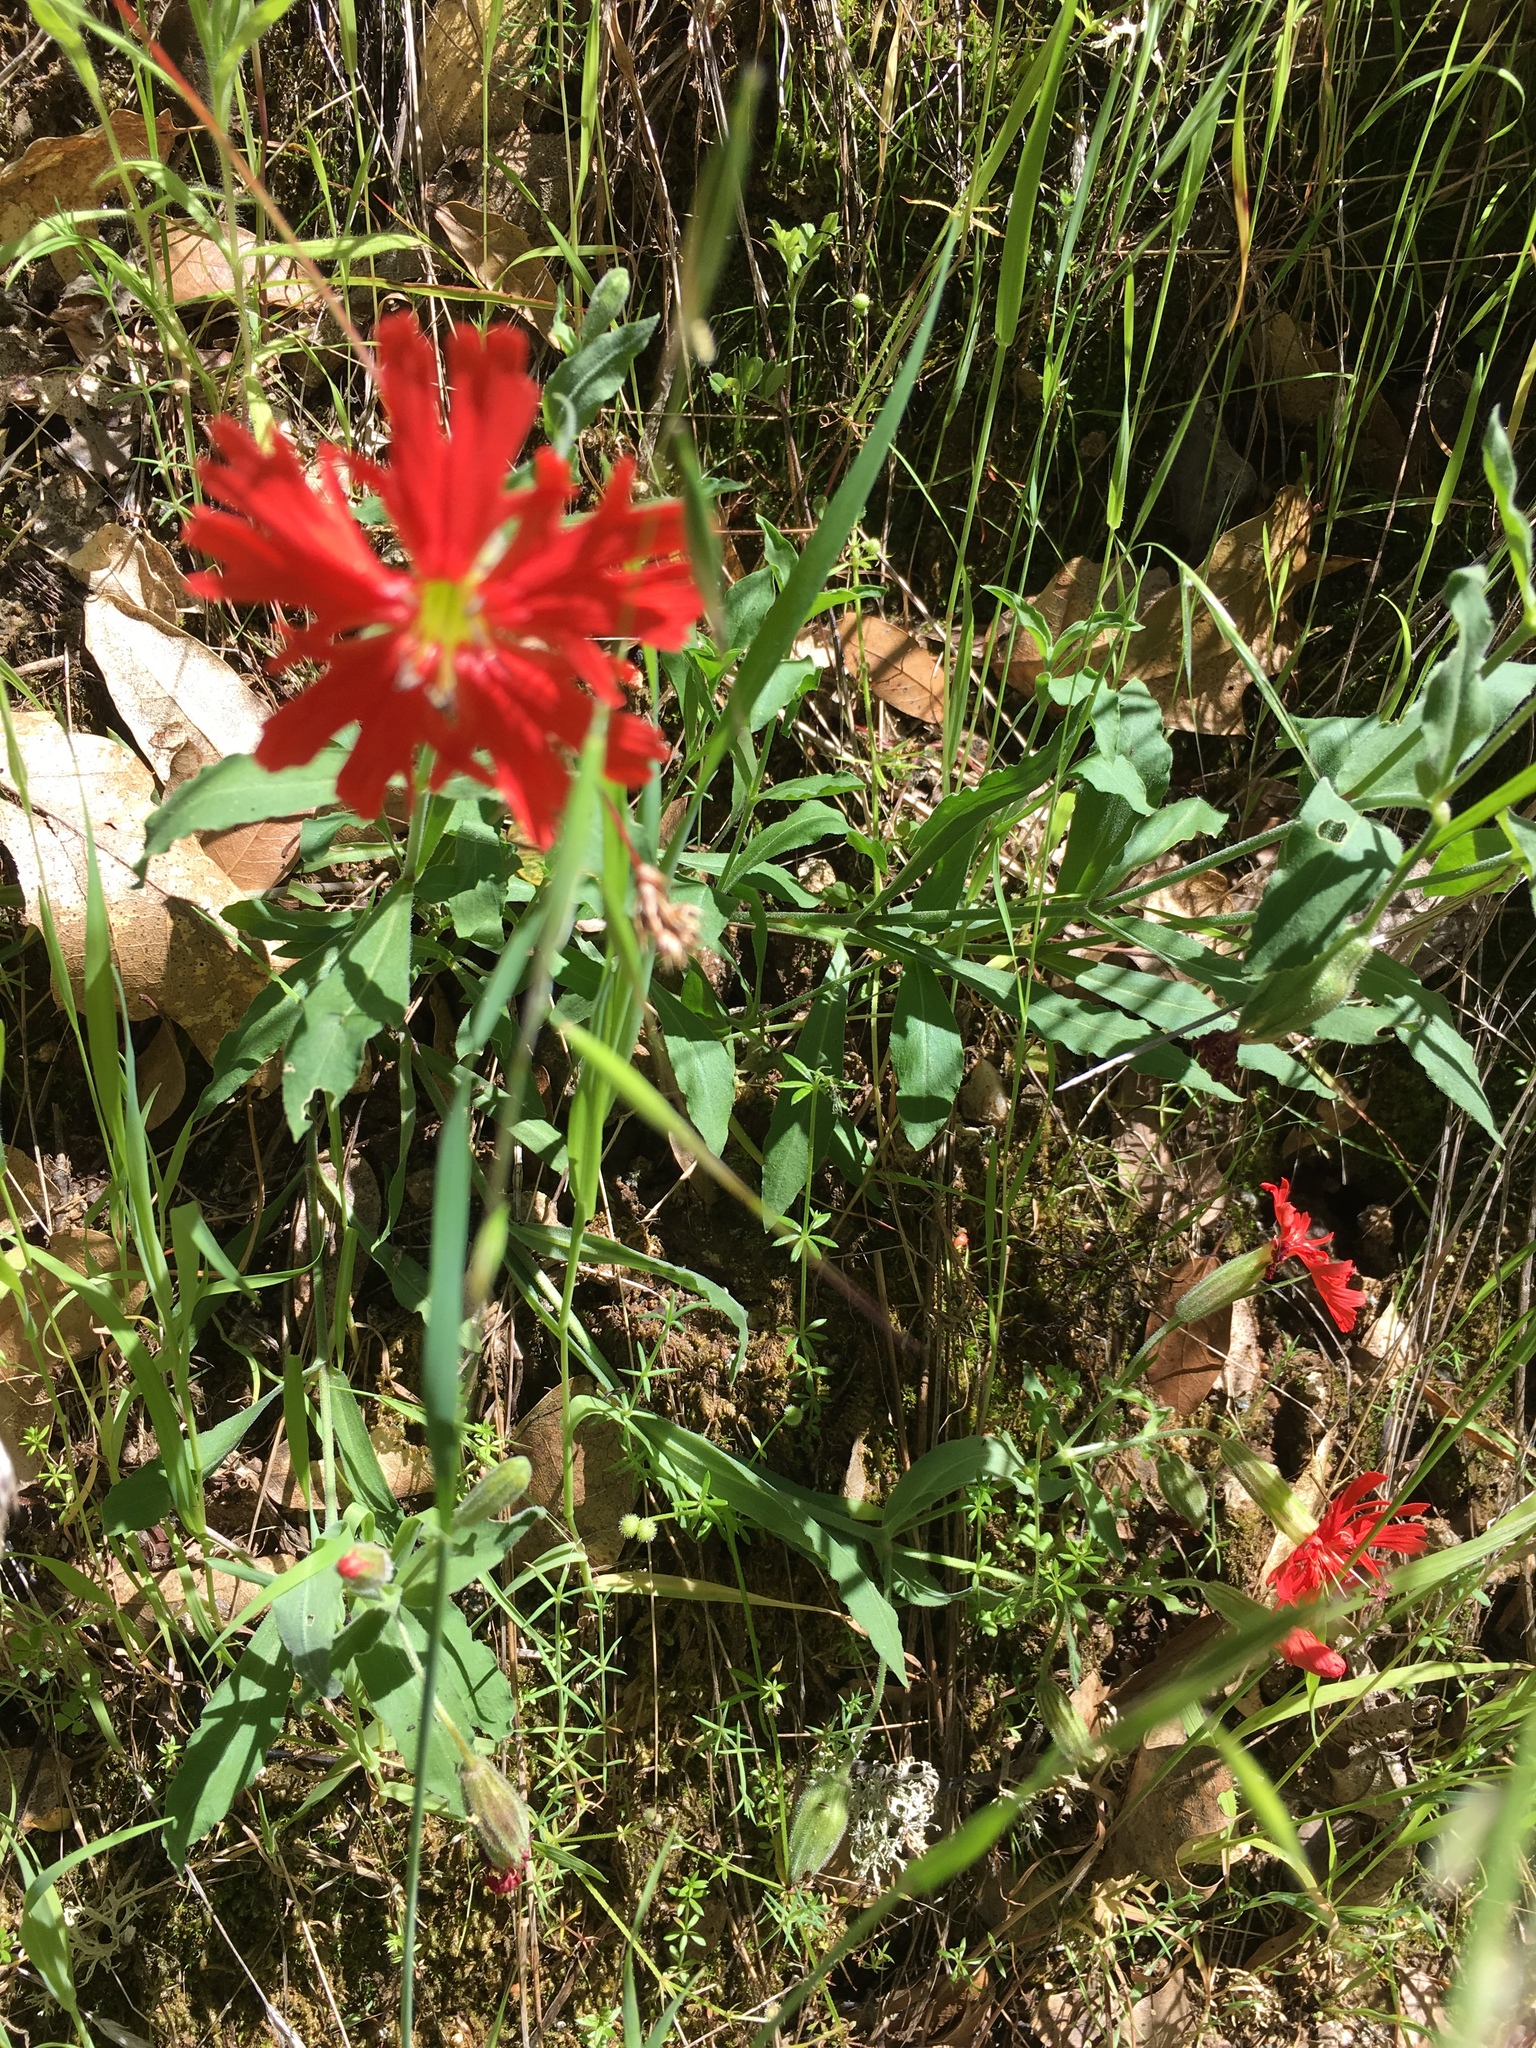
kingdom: Plantae
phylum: Tracheophyta
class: Magnoliopsida
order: Caryophyllales
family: Caryophyllaceae
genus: Silene
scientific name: Silene laciniata
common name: Indian-pink
